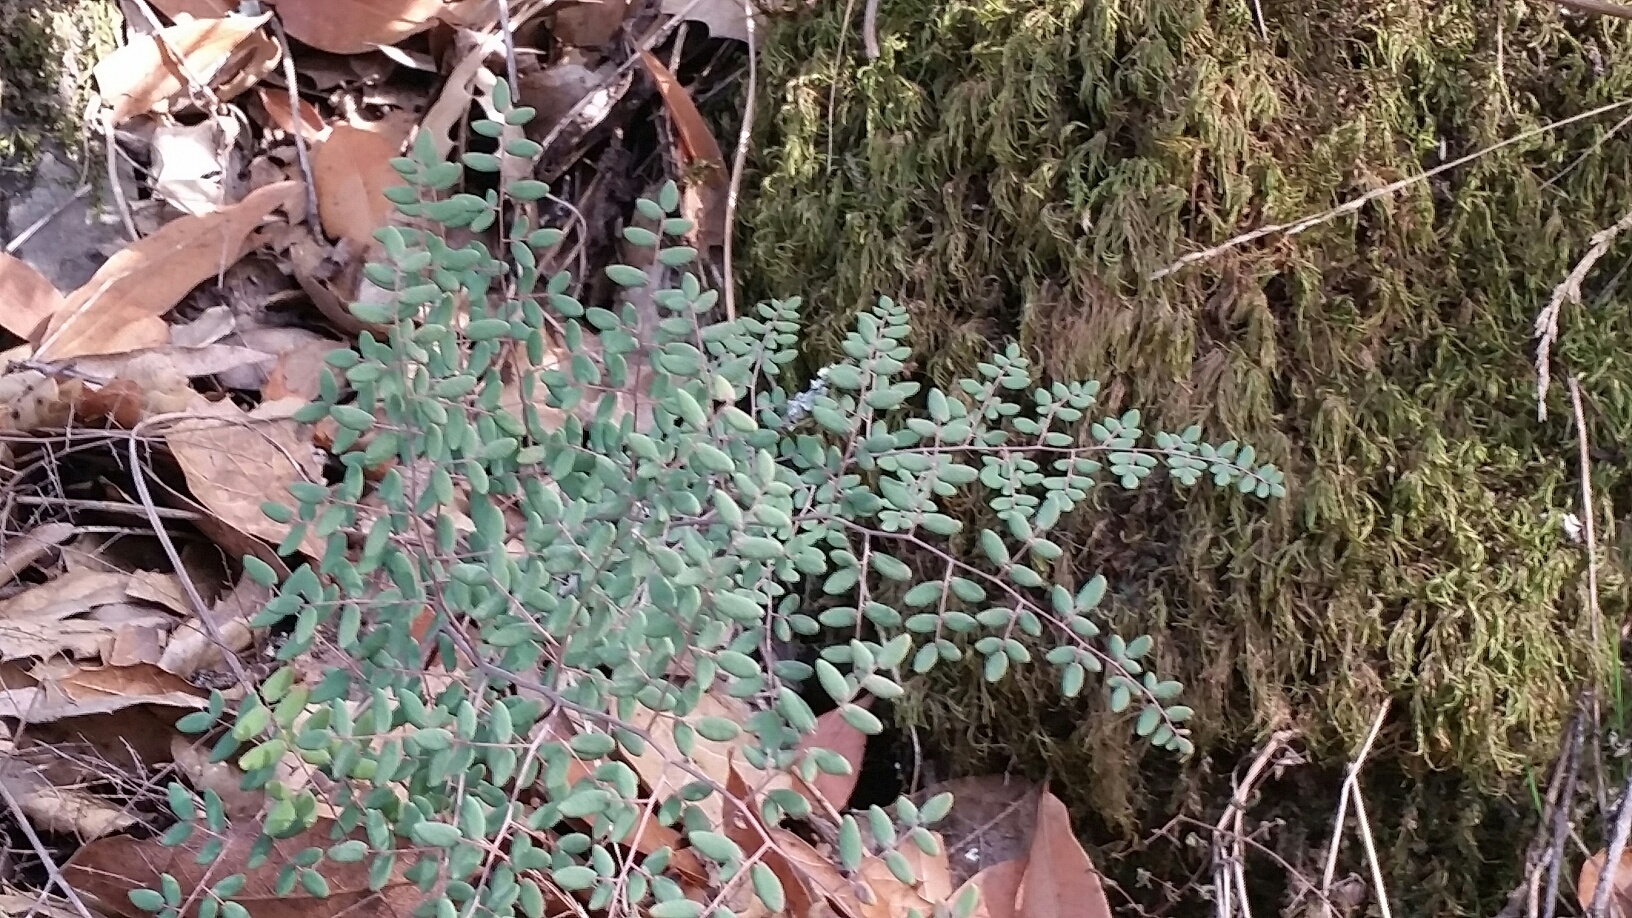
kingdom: Plantae
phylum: Tracheophyta
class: Polypodiopsida
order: Polypodiales
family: Pteridaceae
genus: Pellaea
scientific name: Pellaea andromedifolia
